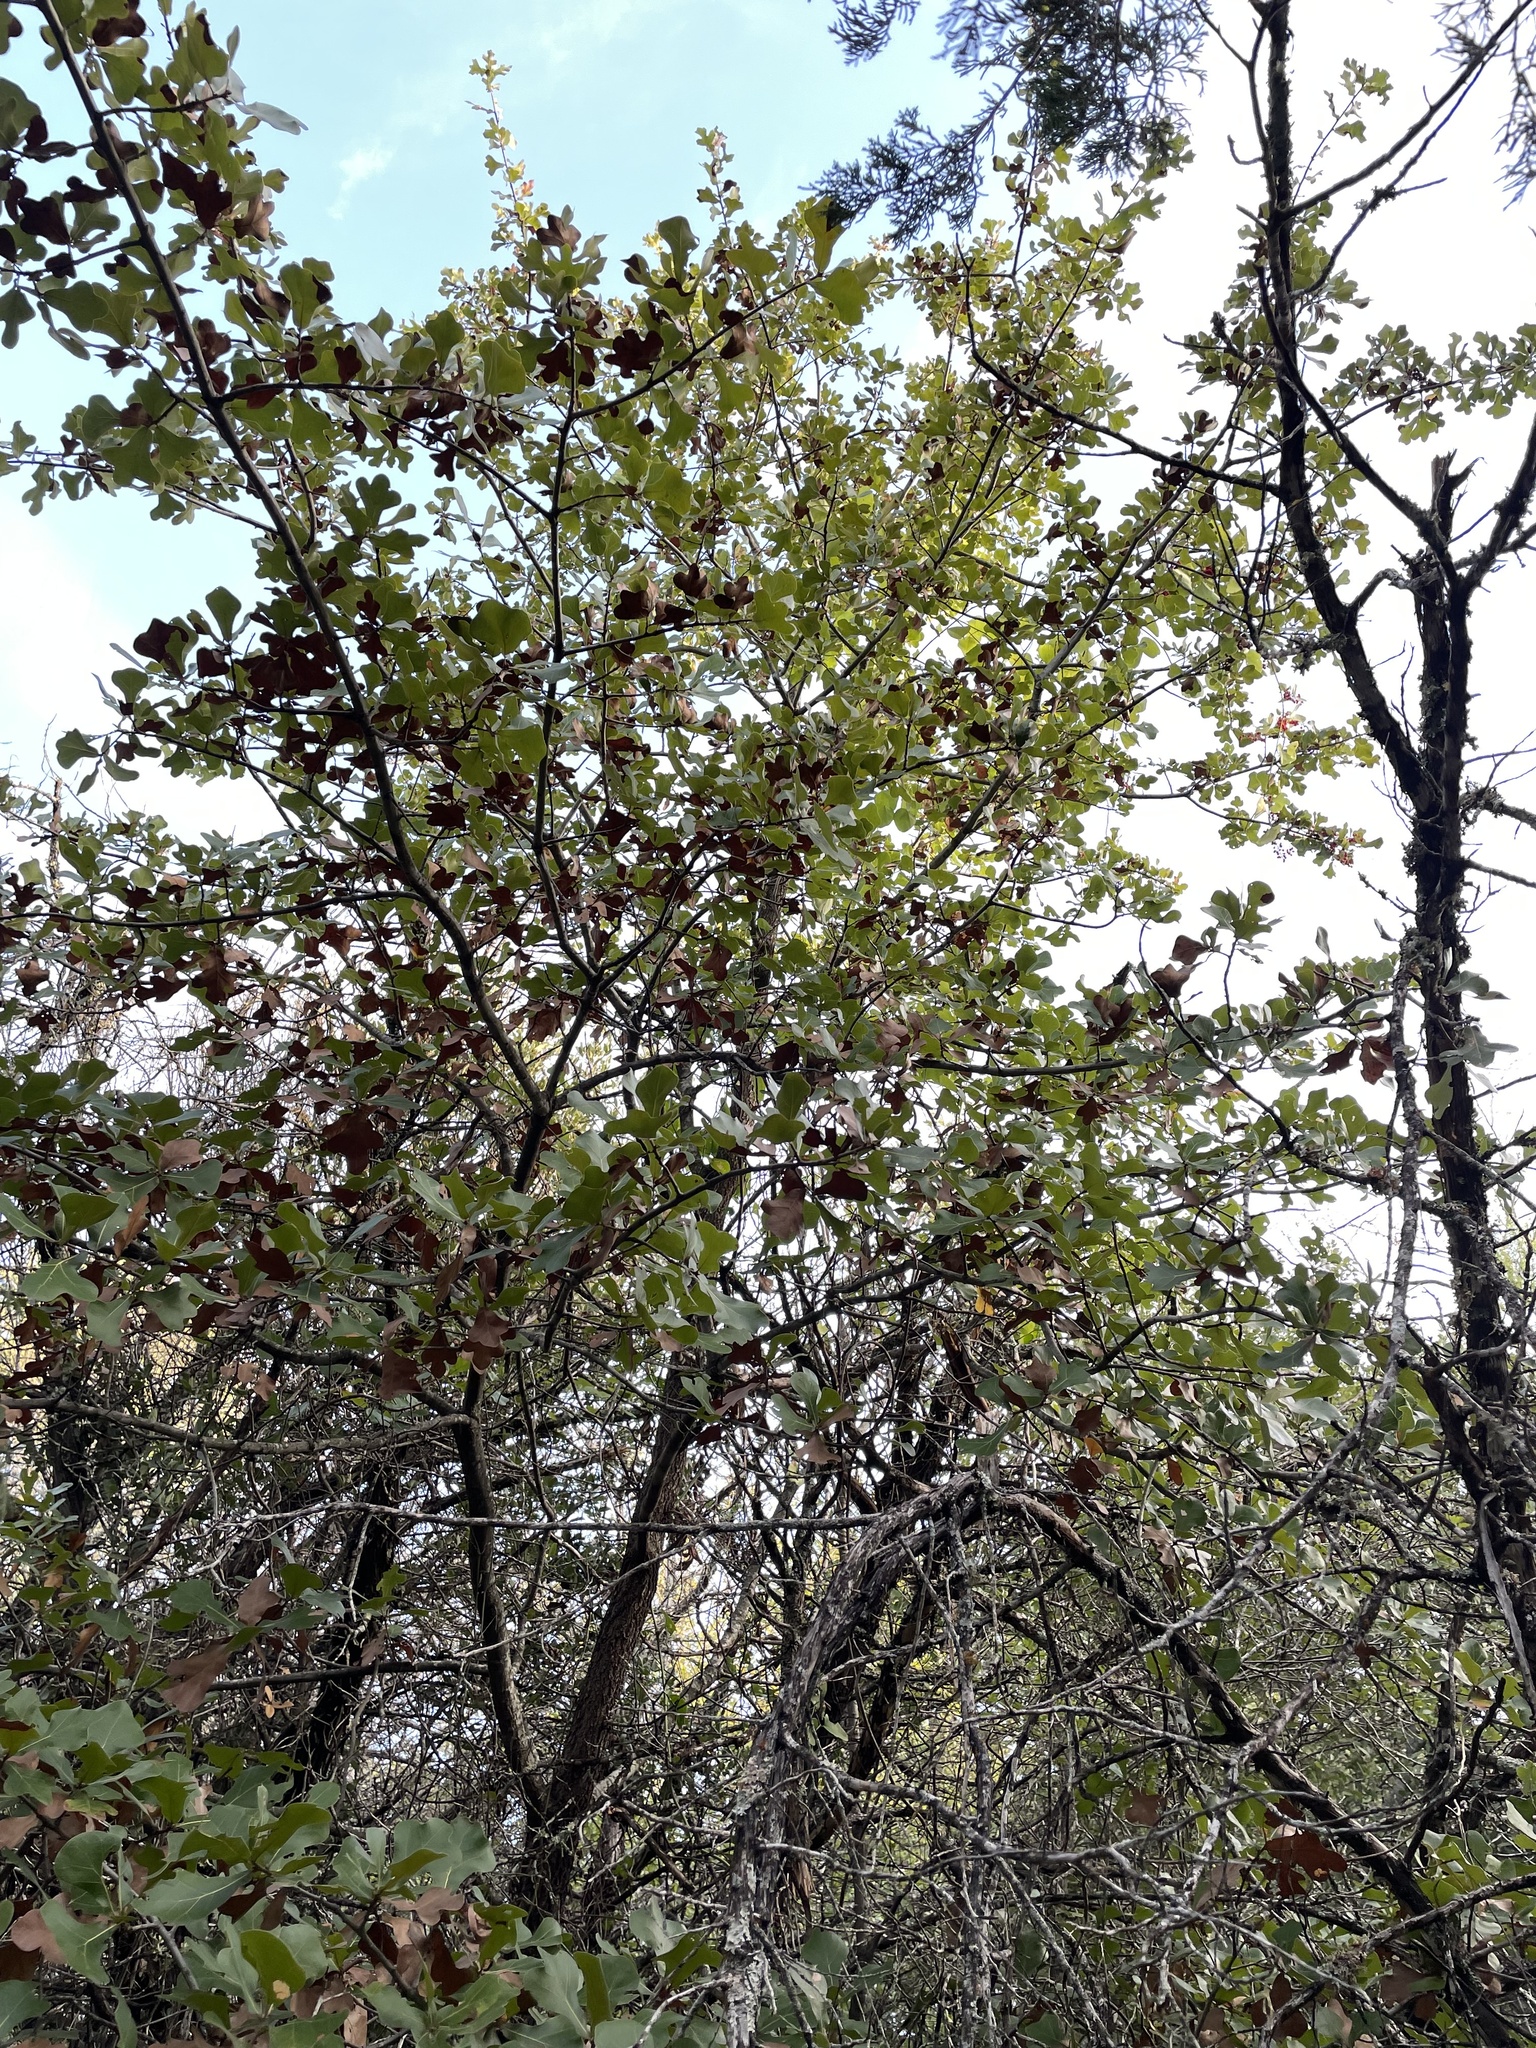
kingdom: Plantae
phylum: Tracheophyta
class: Magnoliopsida
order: Fagales
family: Fagaceae
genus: Quercus
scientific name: Quercus marilandica
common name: Blackjack oak
